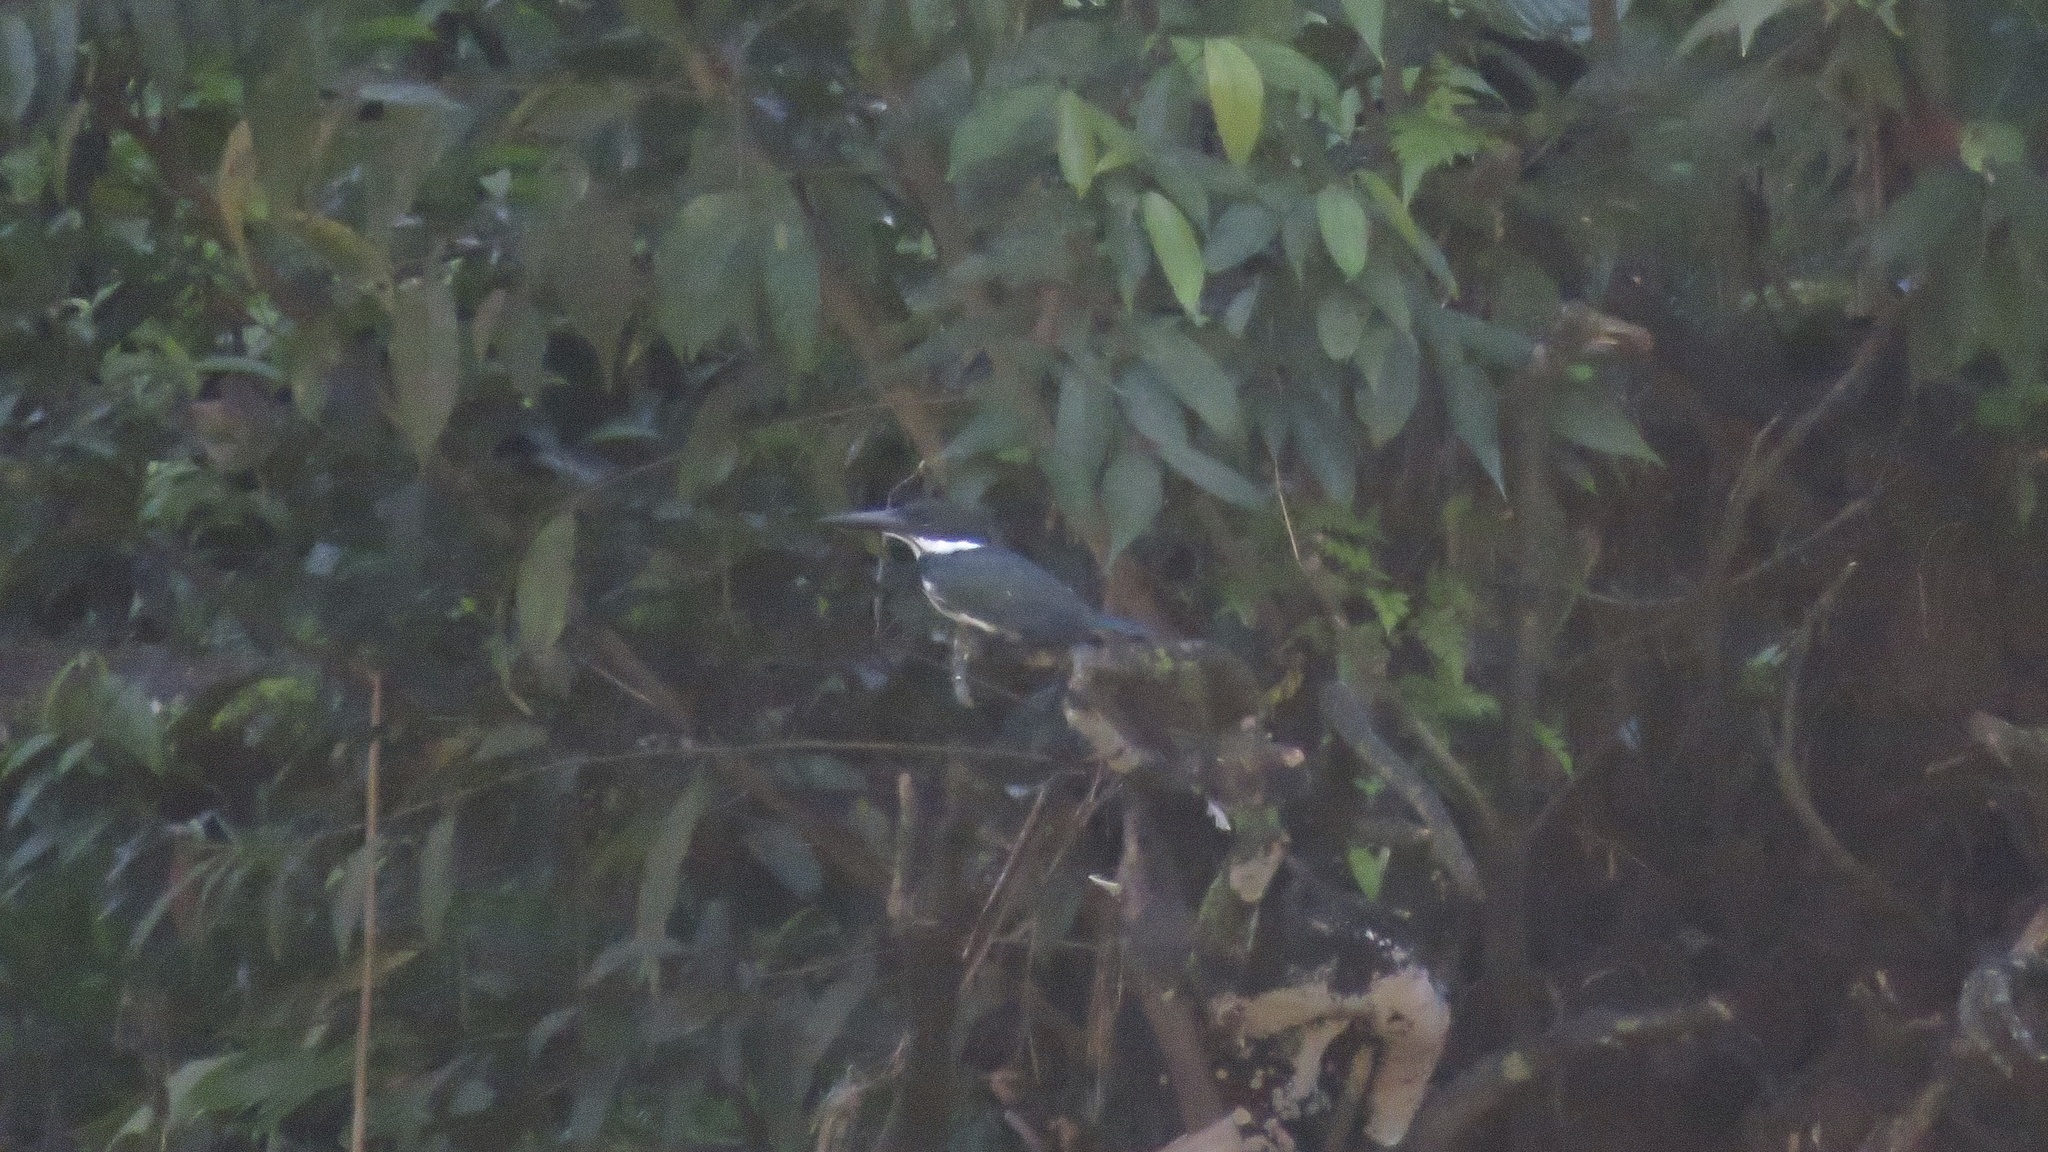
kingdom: Animalia
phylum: Chordata
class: Aves
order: Coraciiformes
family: Alcedinidae
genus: Chloroceryle
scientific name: Chloroceryle amazona
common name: Amazon kingfisher
